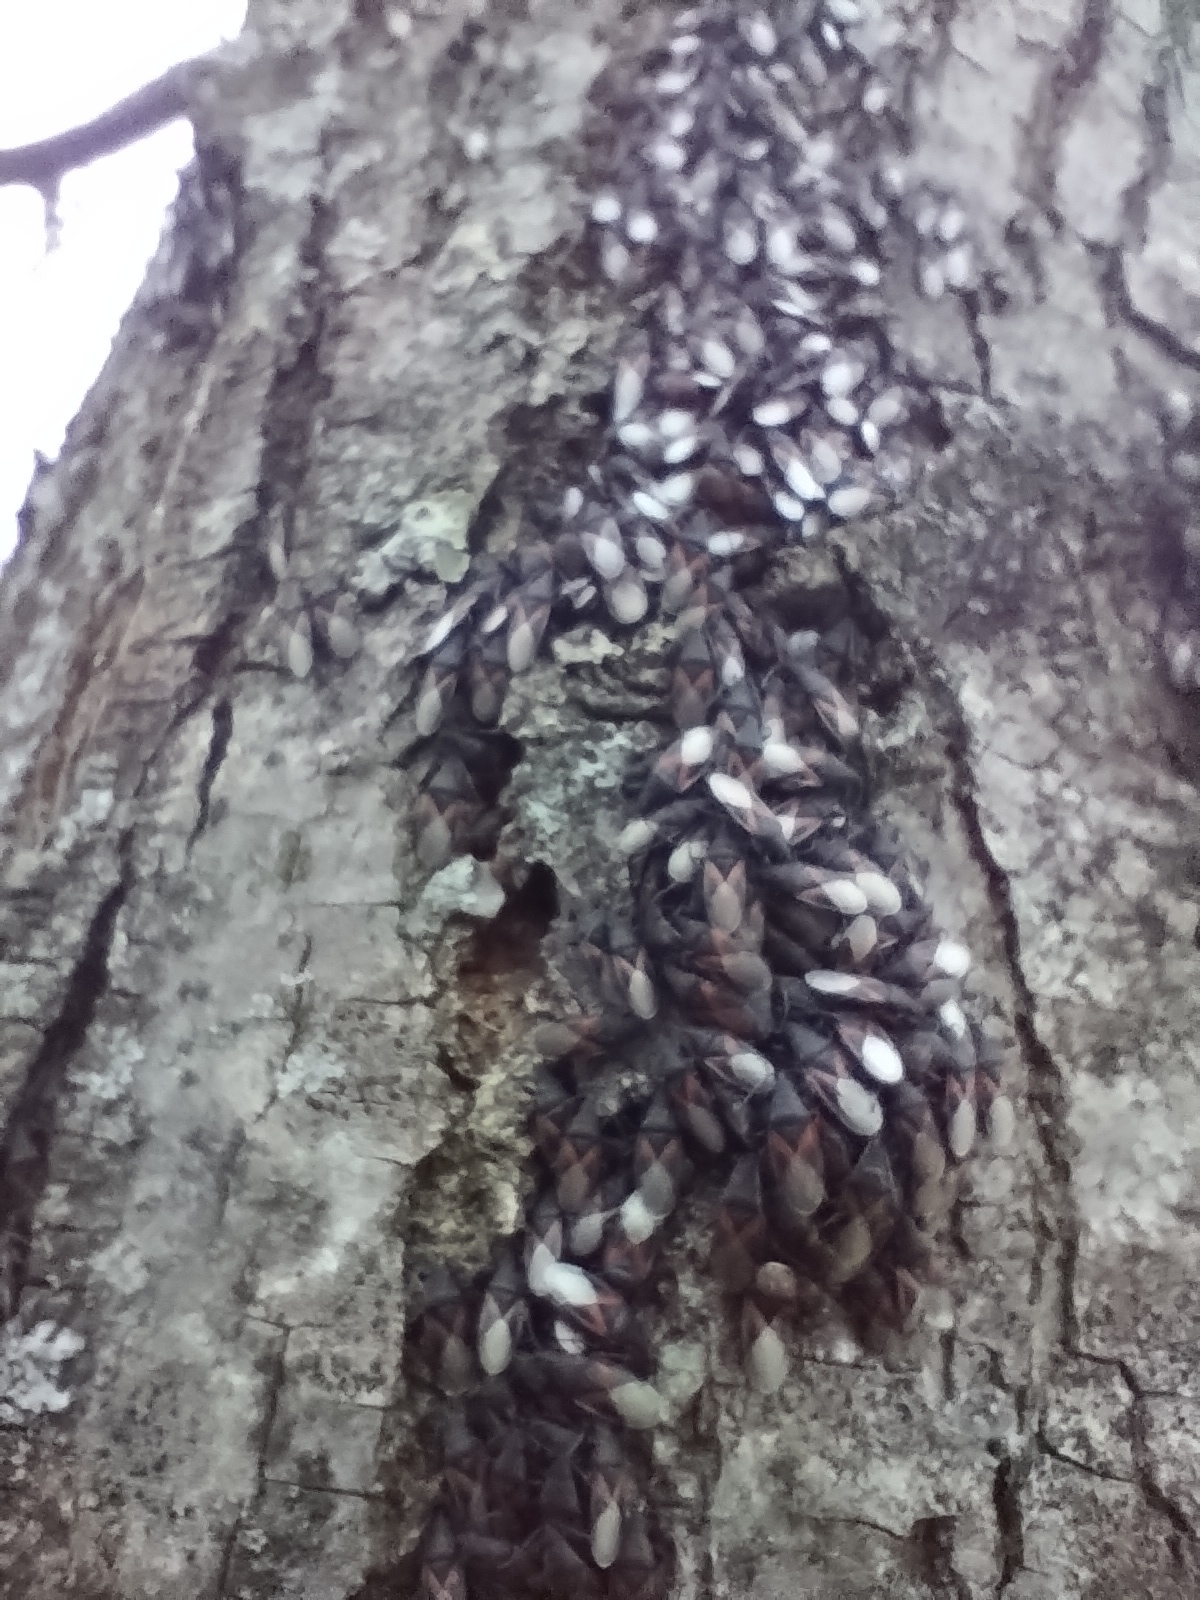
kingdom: Animalia
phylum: Arthropoda
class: Insecta
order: Hemiptera
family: Oxycarenidae
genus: Oxycarenus
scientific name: Oxycarenus lavaterae
